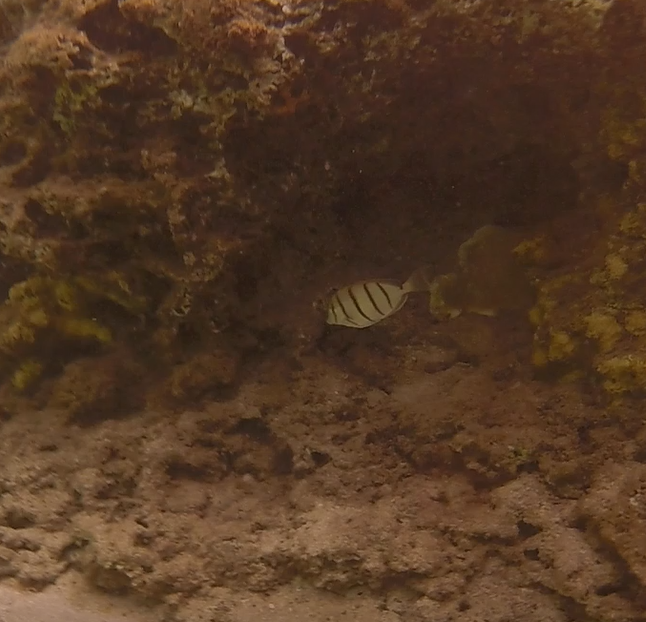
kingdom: Animalia
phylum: Chordata
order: Perciformes
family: Acanthuridae
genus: Acanthurus
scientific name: Acanthurus triostegus
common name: Convict surgeonfish
